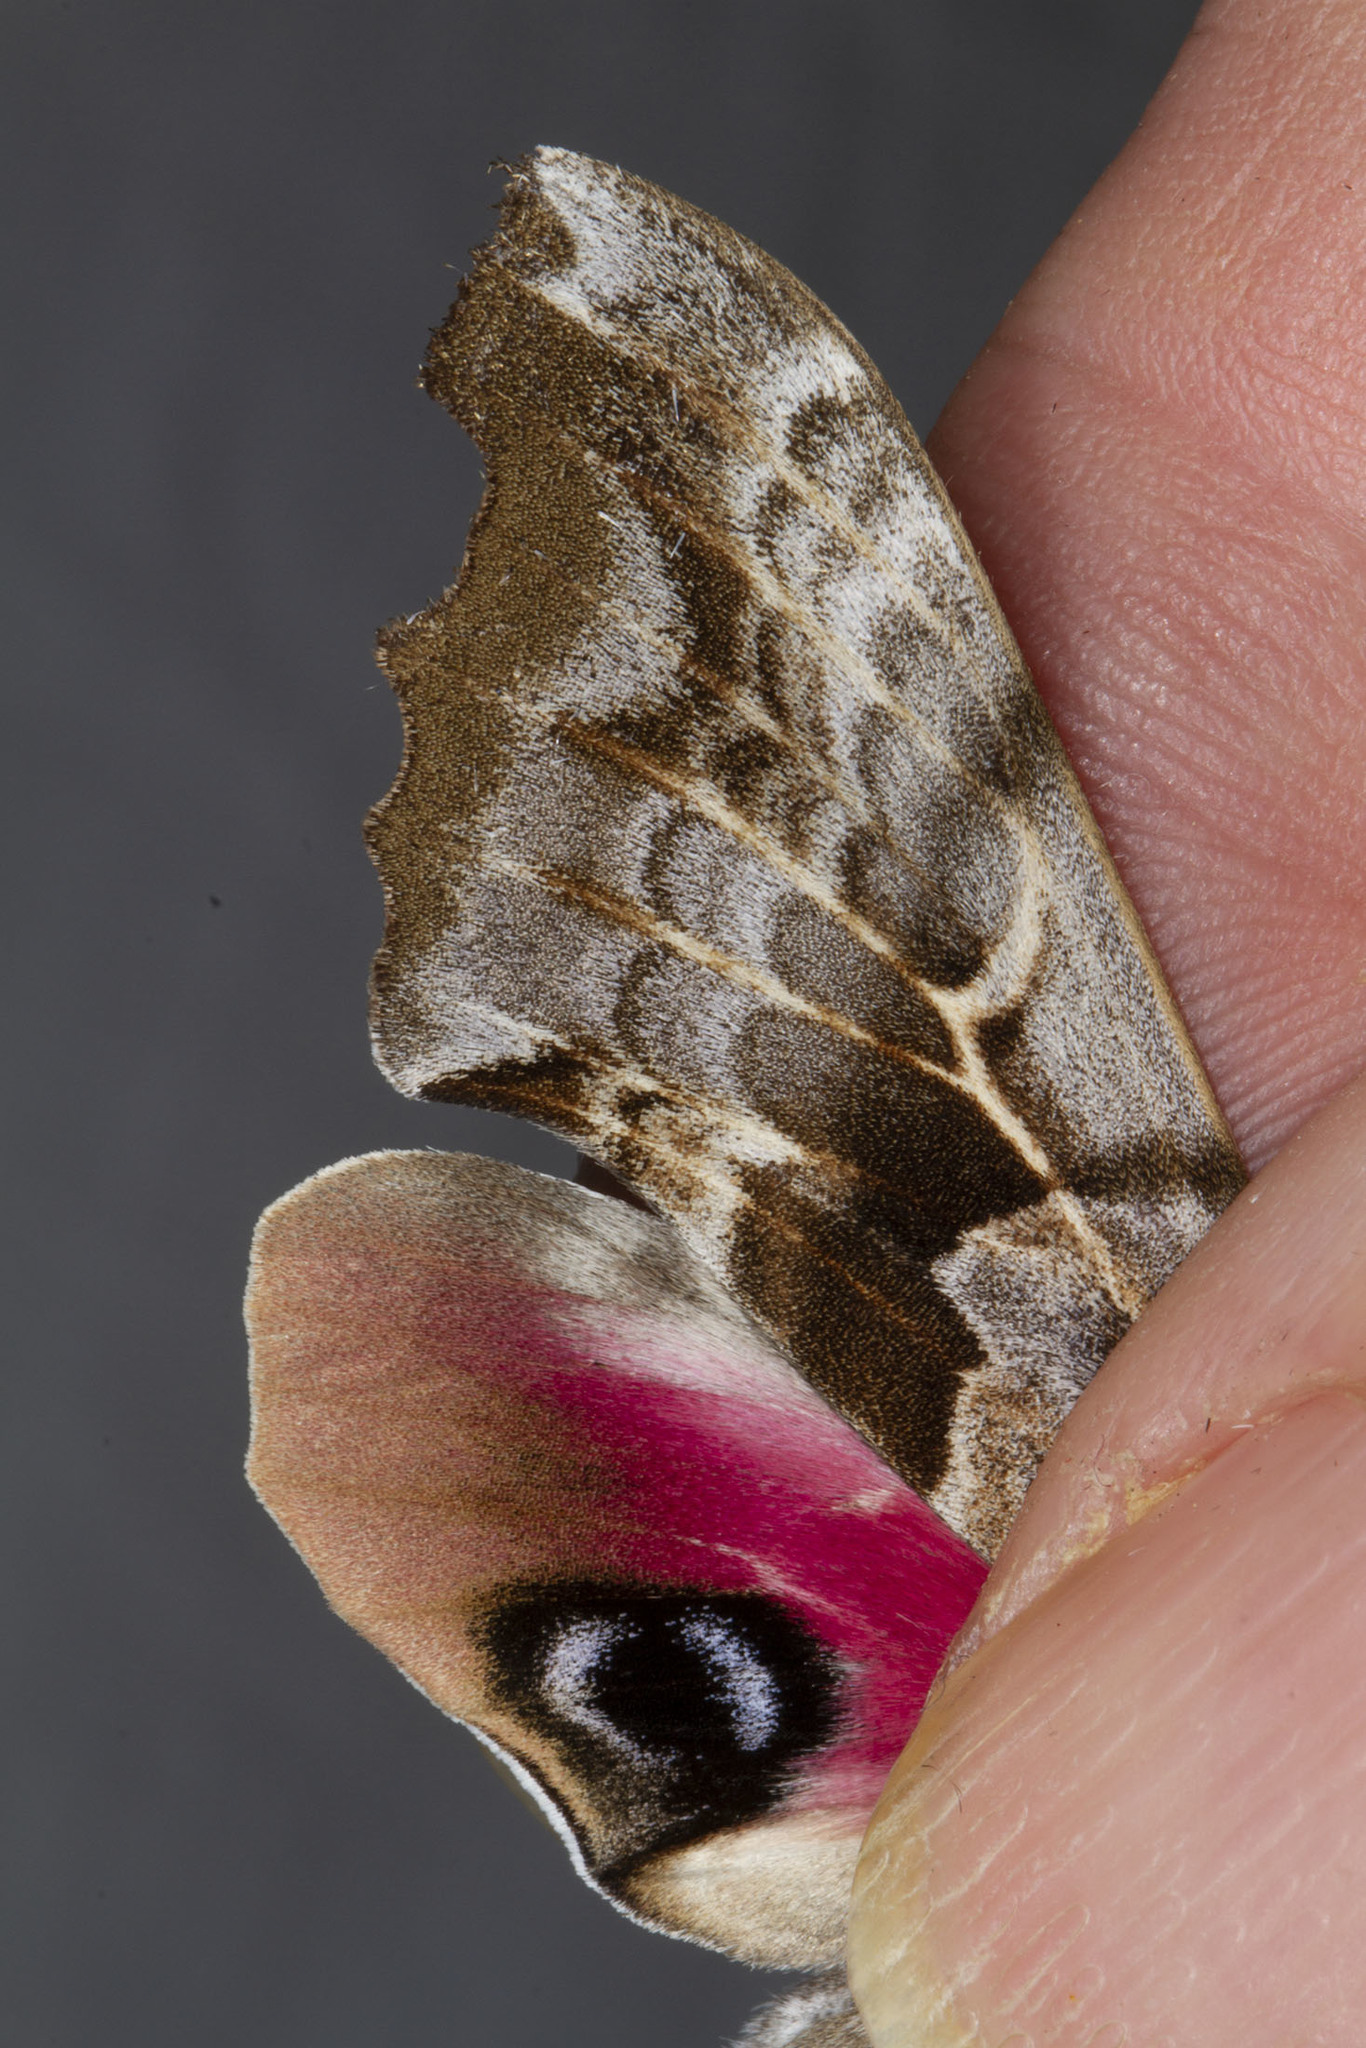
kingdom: Animalia
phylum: Arthropoda
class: Insecta
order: Lepidoptera
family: Sphingidae
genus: Smerinthus
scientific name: Smerinthus cerisyi
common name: Cerisy's sphinx moth
